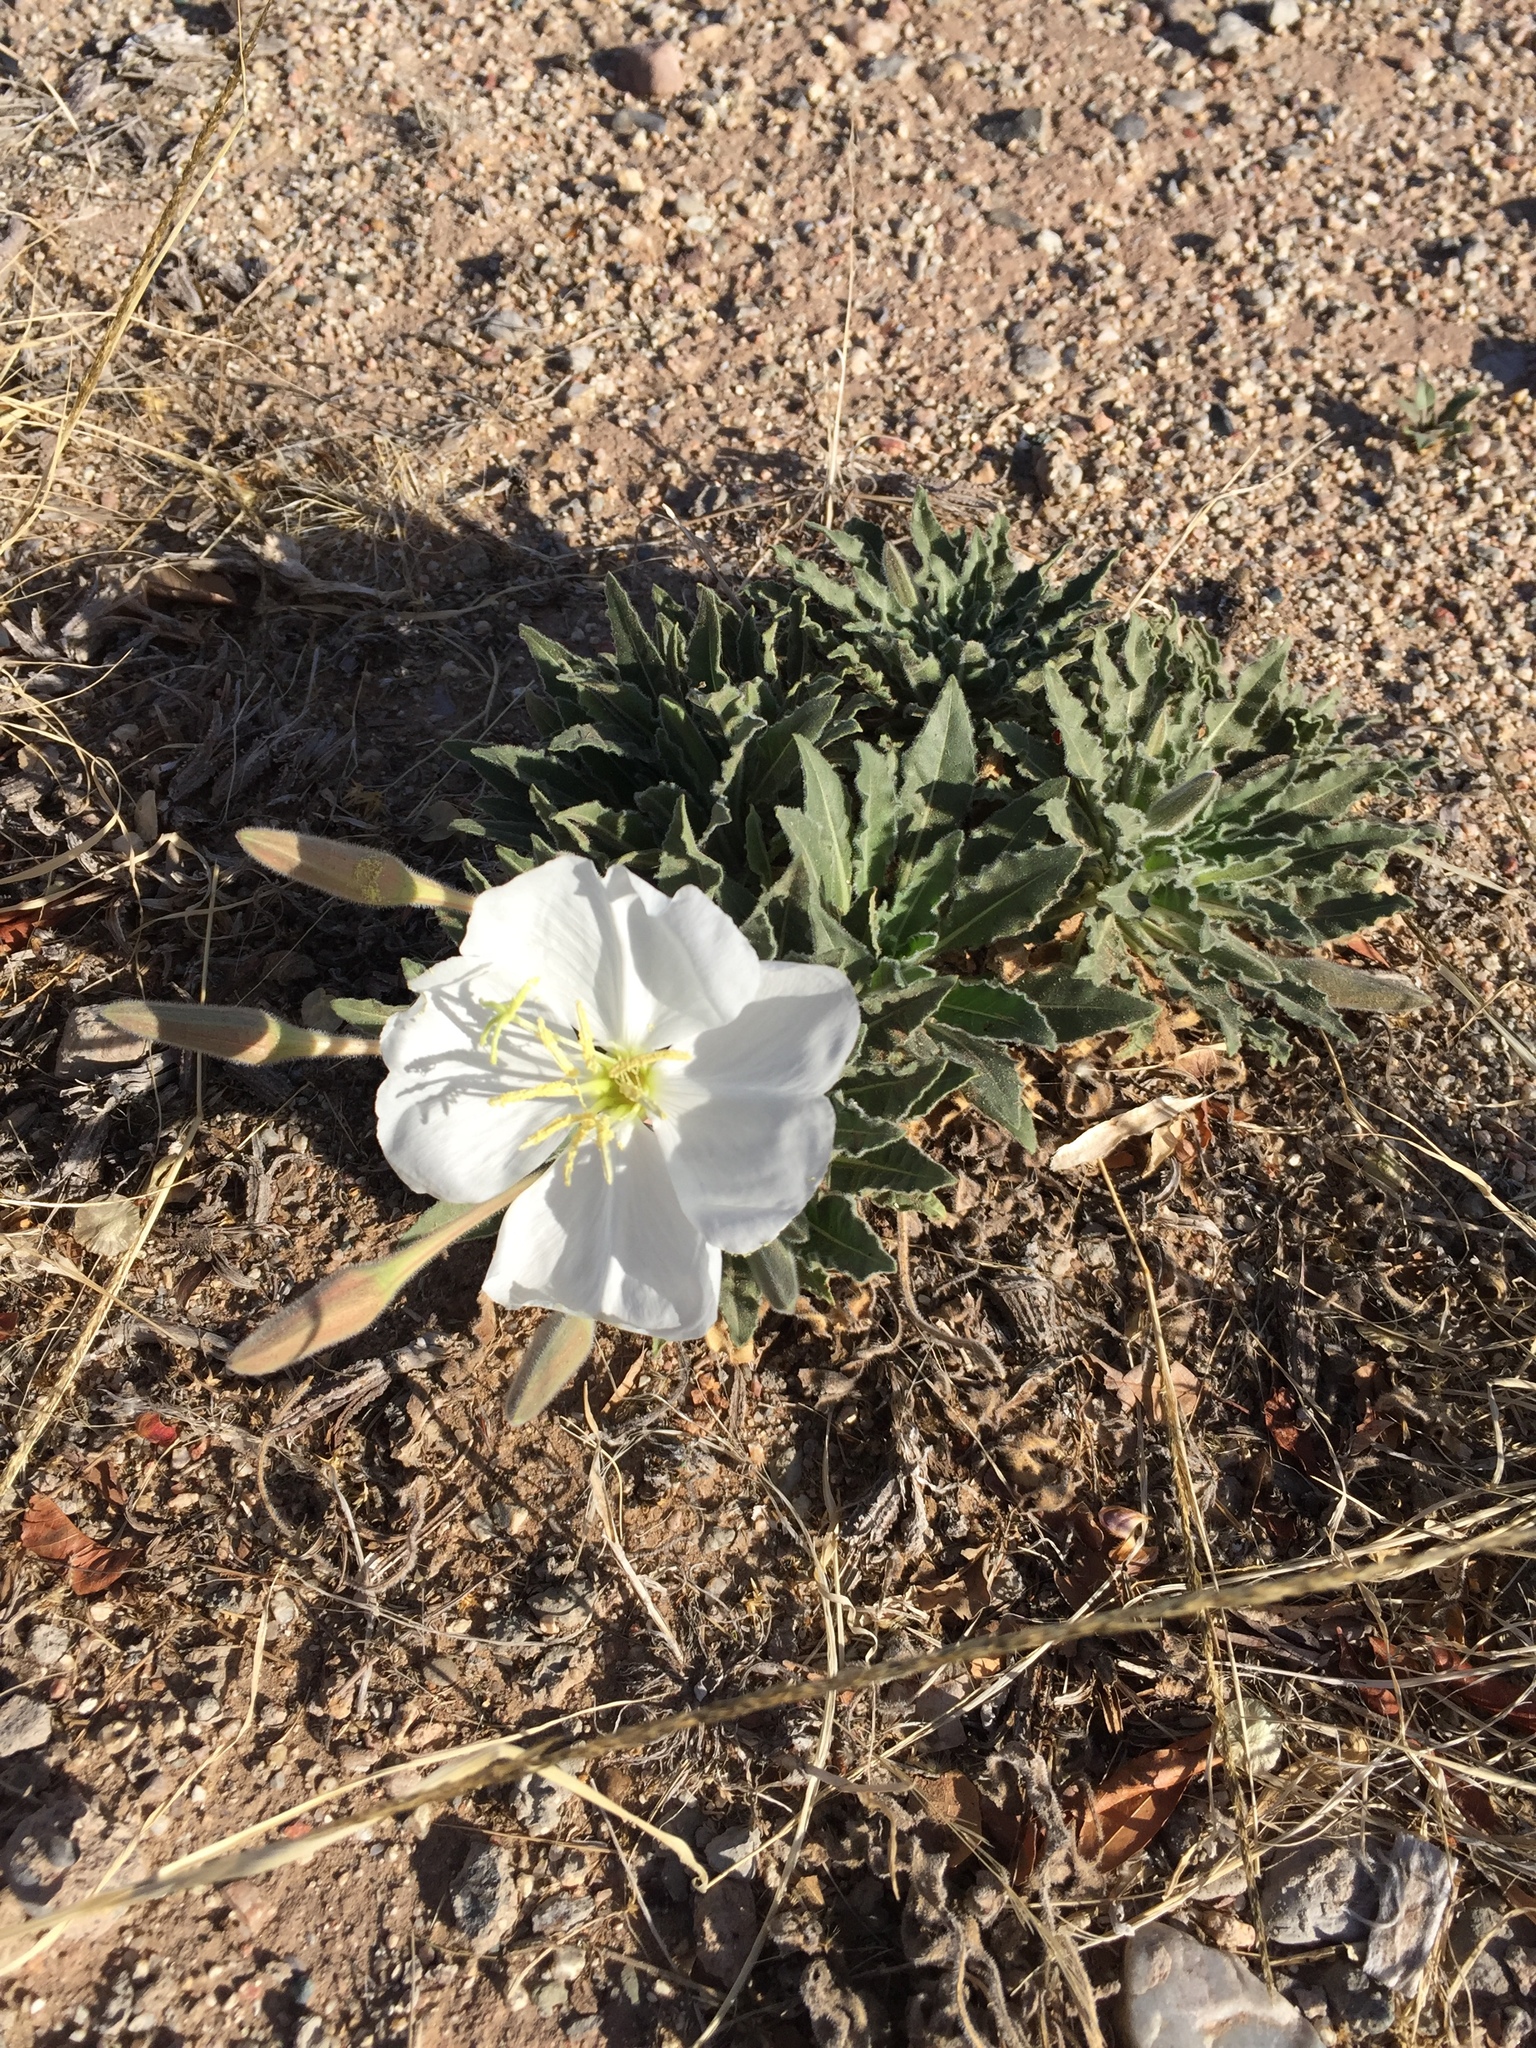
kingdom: Plantae
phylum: Tracheophyta
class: Magnoliopsida
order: Myrtales
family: Onagraceae
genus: Oenothera
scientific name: Oenothera cespitosa
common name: Tufted evening-primrose
